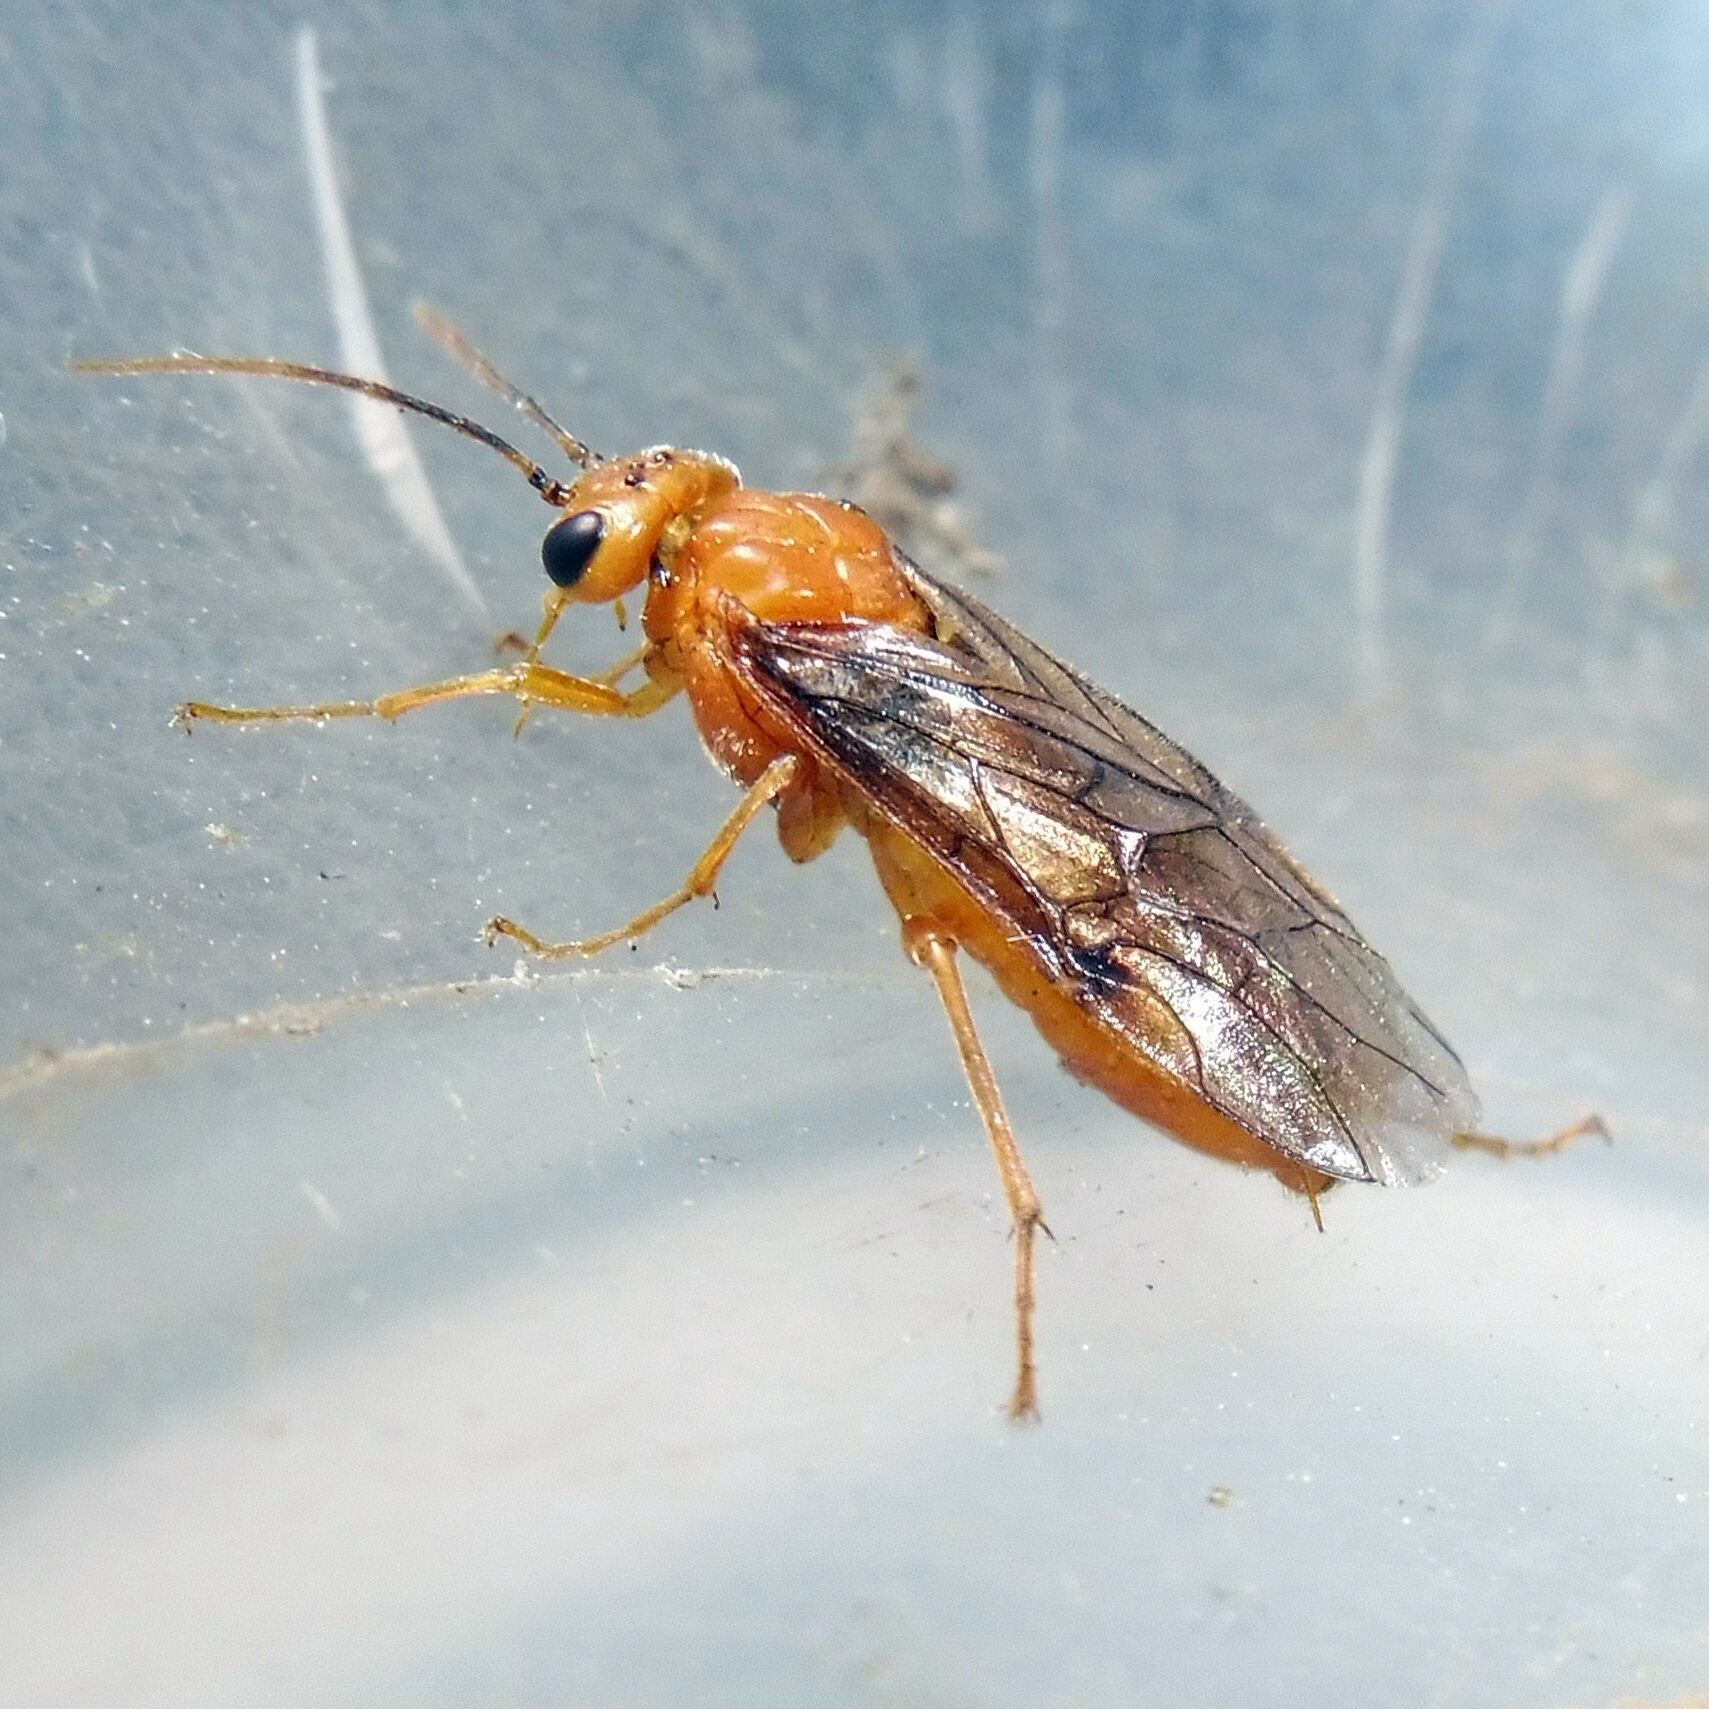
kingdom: Animalia
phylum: Arthropoda
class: Insecta
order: Hymenoptera
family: Tenthredinidae
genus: Nematinus
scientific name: Nematinus steini
